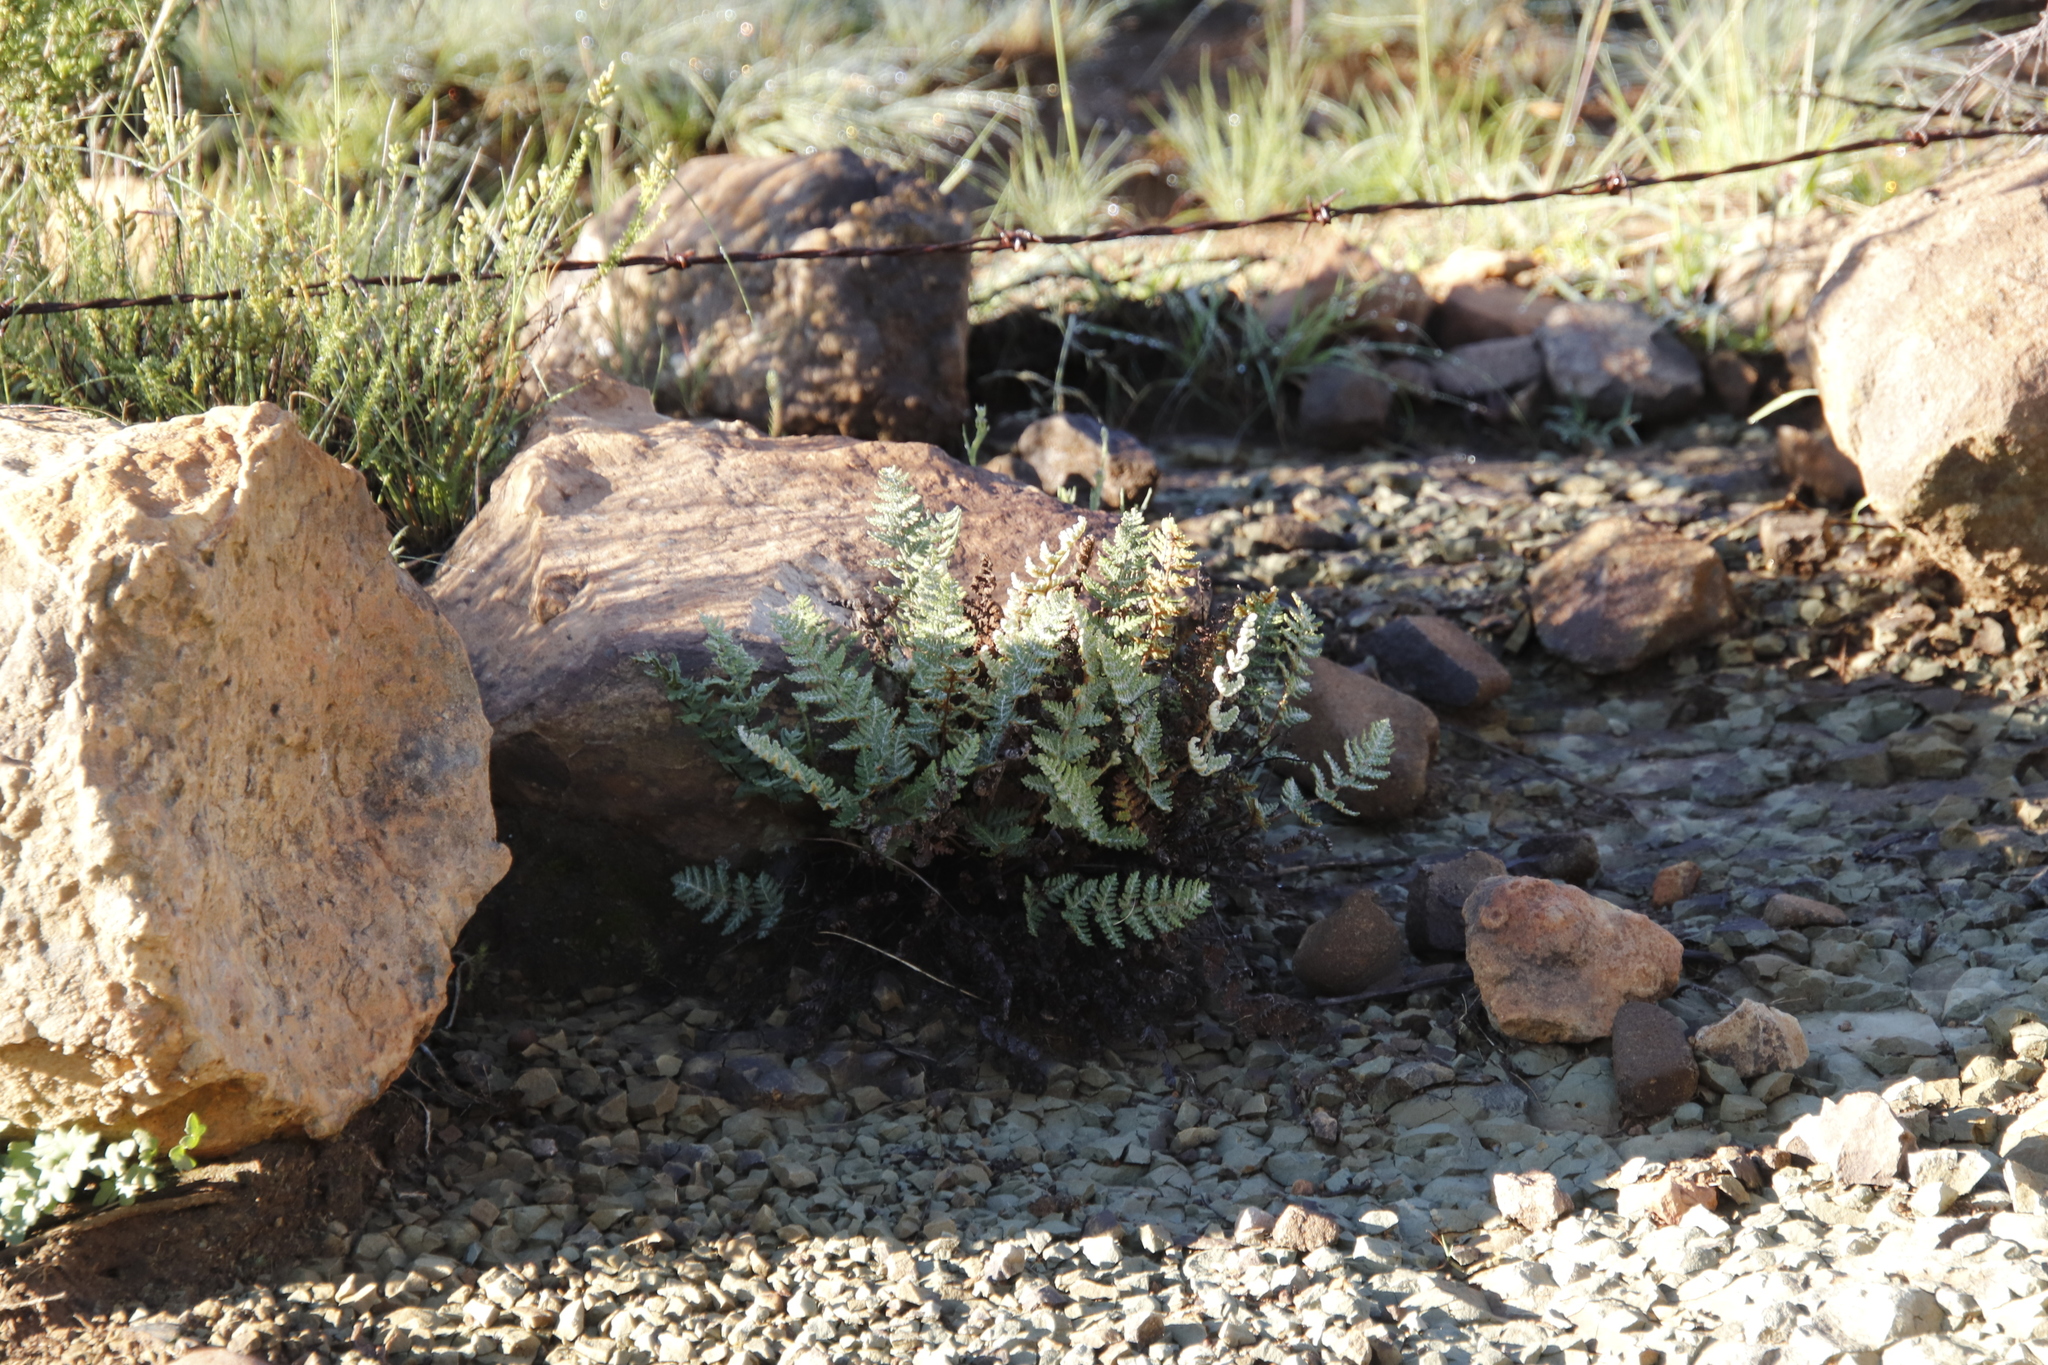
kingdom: Plantae
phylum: Tracheophyta
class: Polypodiopsida
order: Polypodiales
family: Pteridaceae
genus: Cheilanthes
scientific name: Cheilanthes eckloniana
